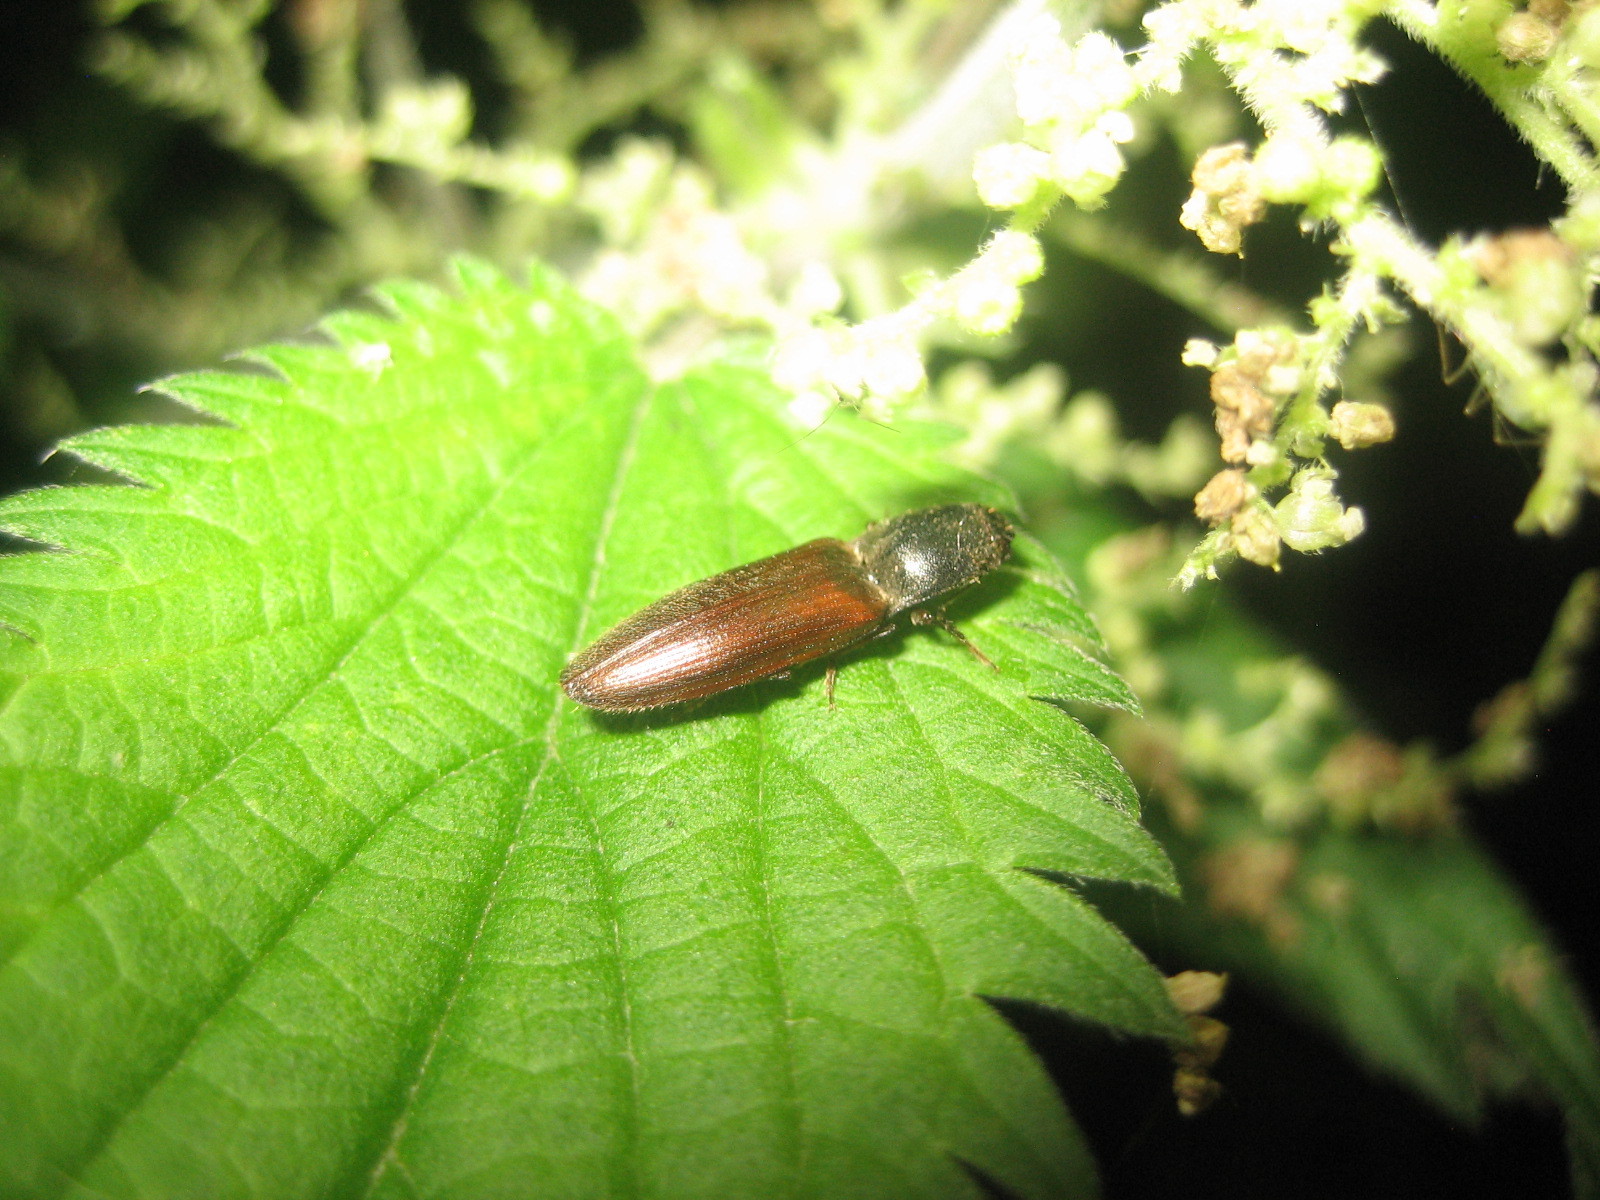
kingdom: Animalia
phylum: Arthropoda
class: Insecta
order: Coleoptera
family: Elateridae
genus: Athous
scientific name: Athous haemorrhoidalis
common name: Red-brown click beetle
